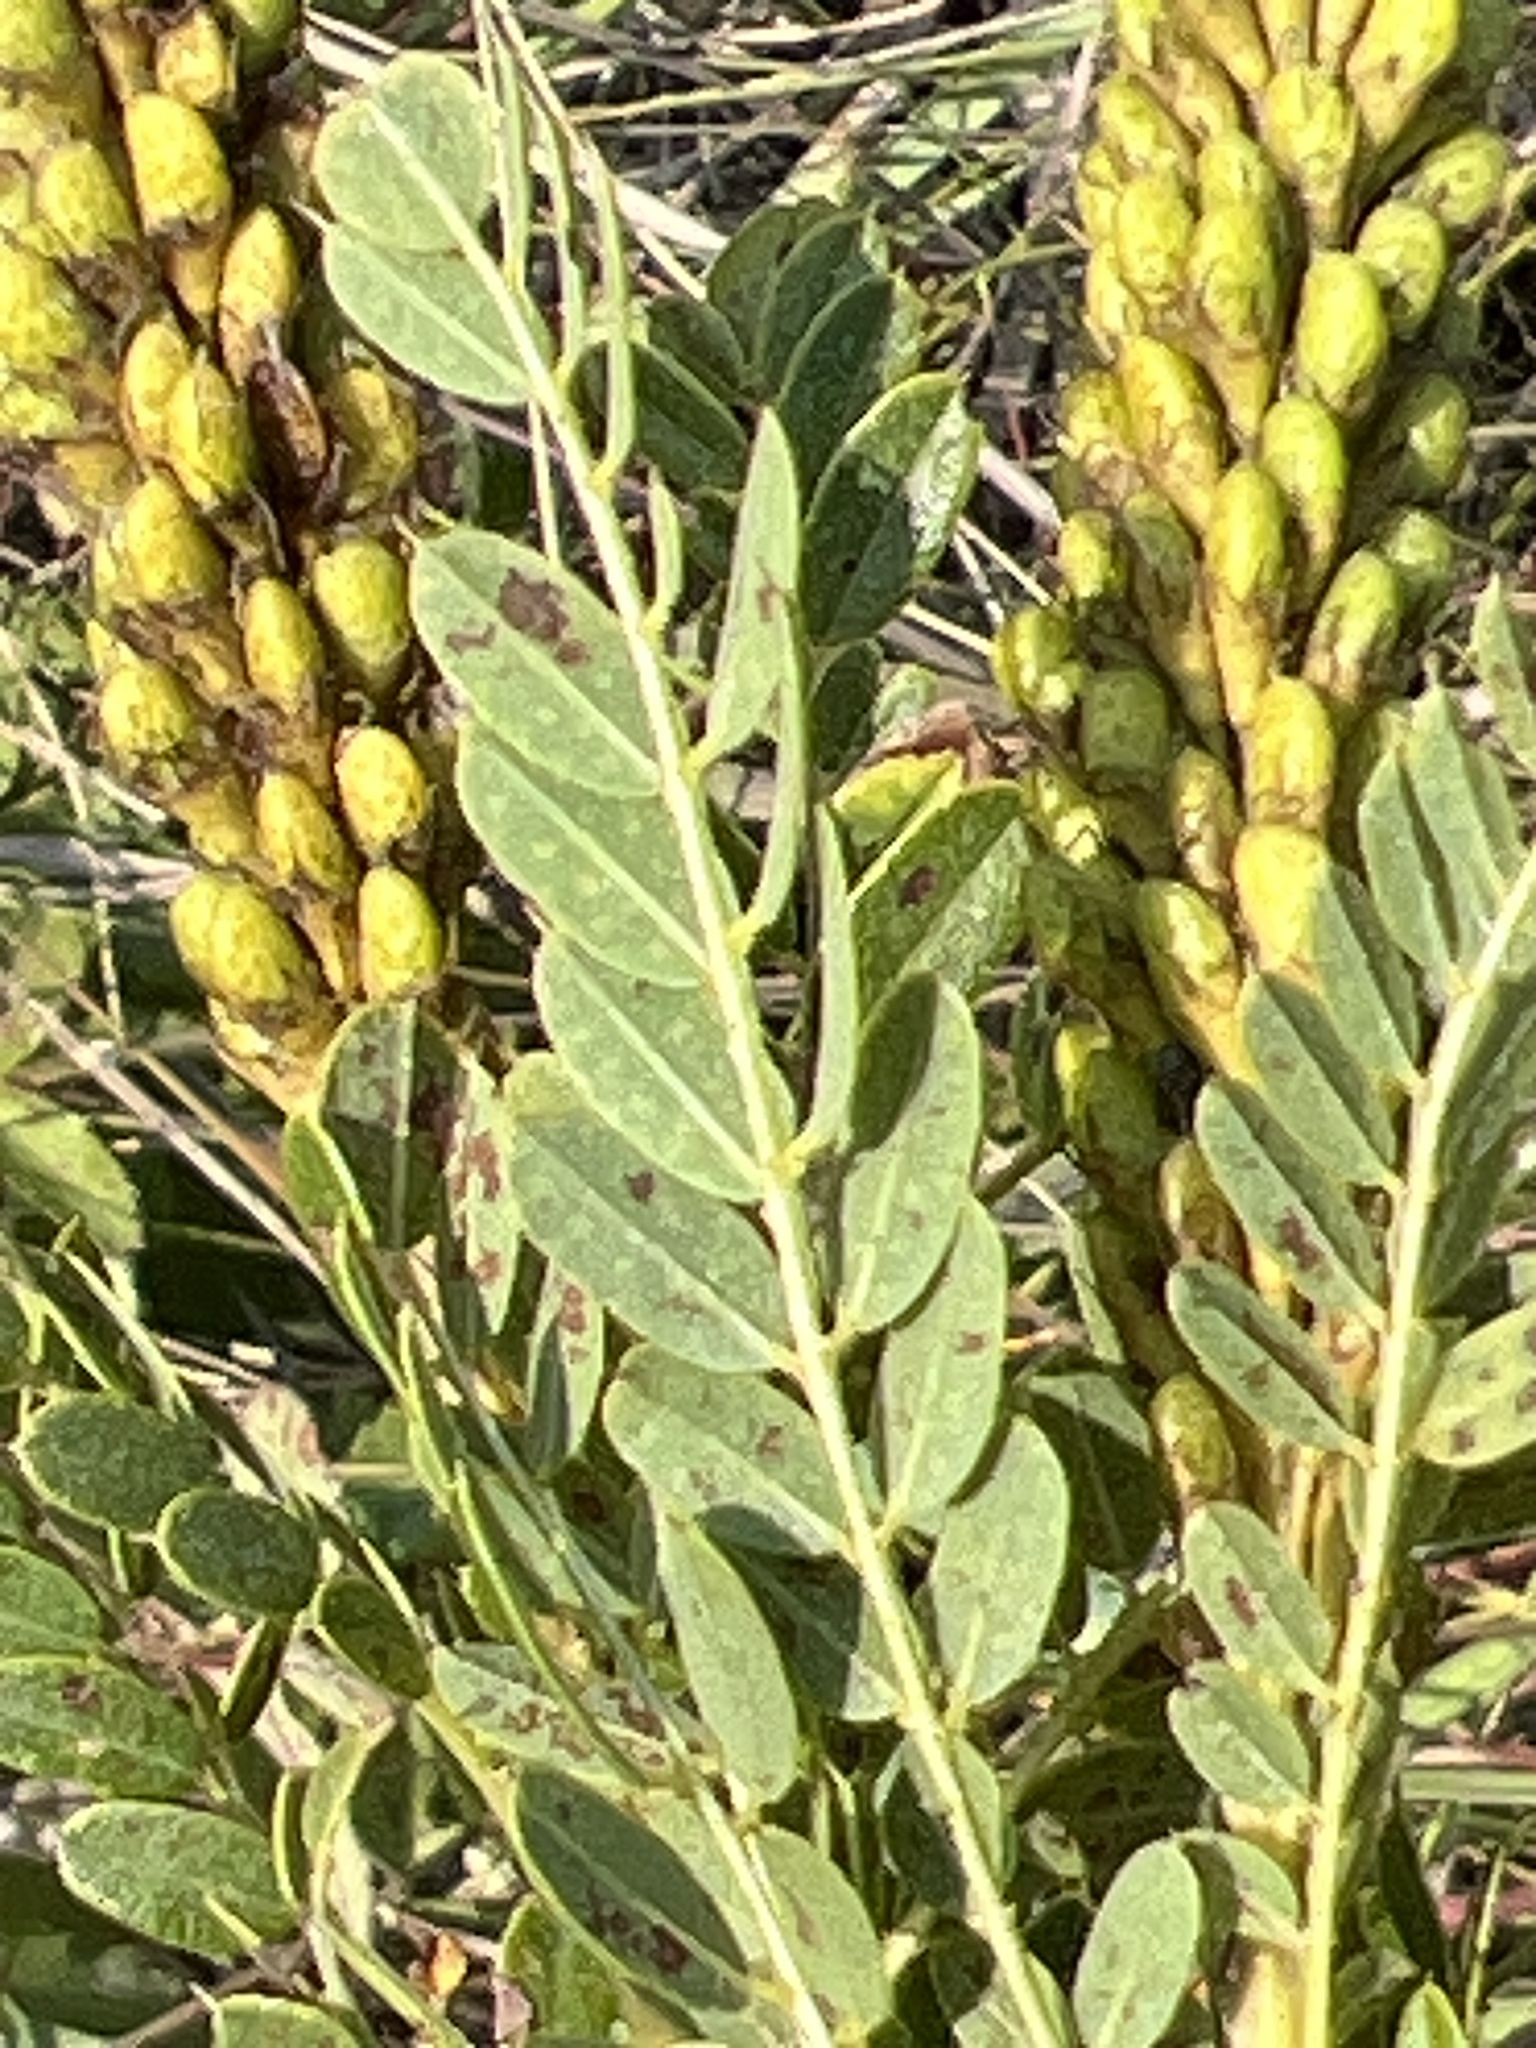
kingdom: Plantae
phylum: Tracheophyta
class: Magnoliopsida
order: Fabales
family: Fabaceae
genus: Amorpha
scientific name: Amorpha nana
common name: Fragrant false indigo
